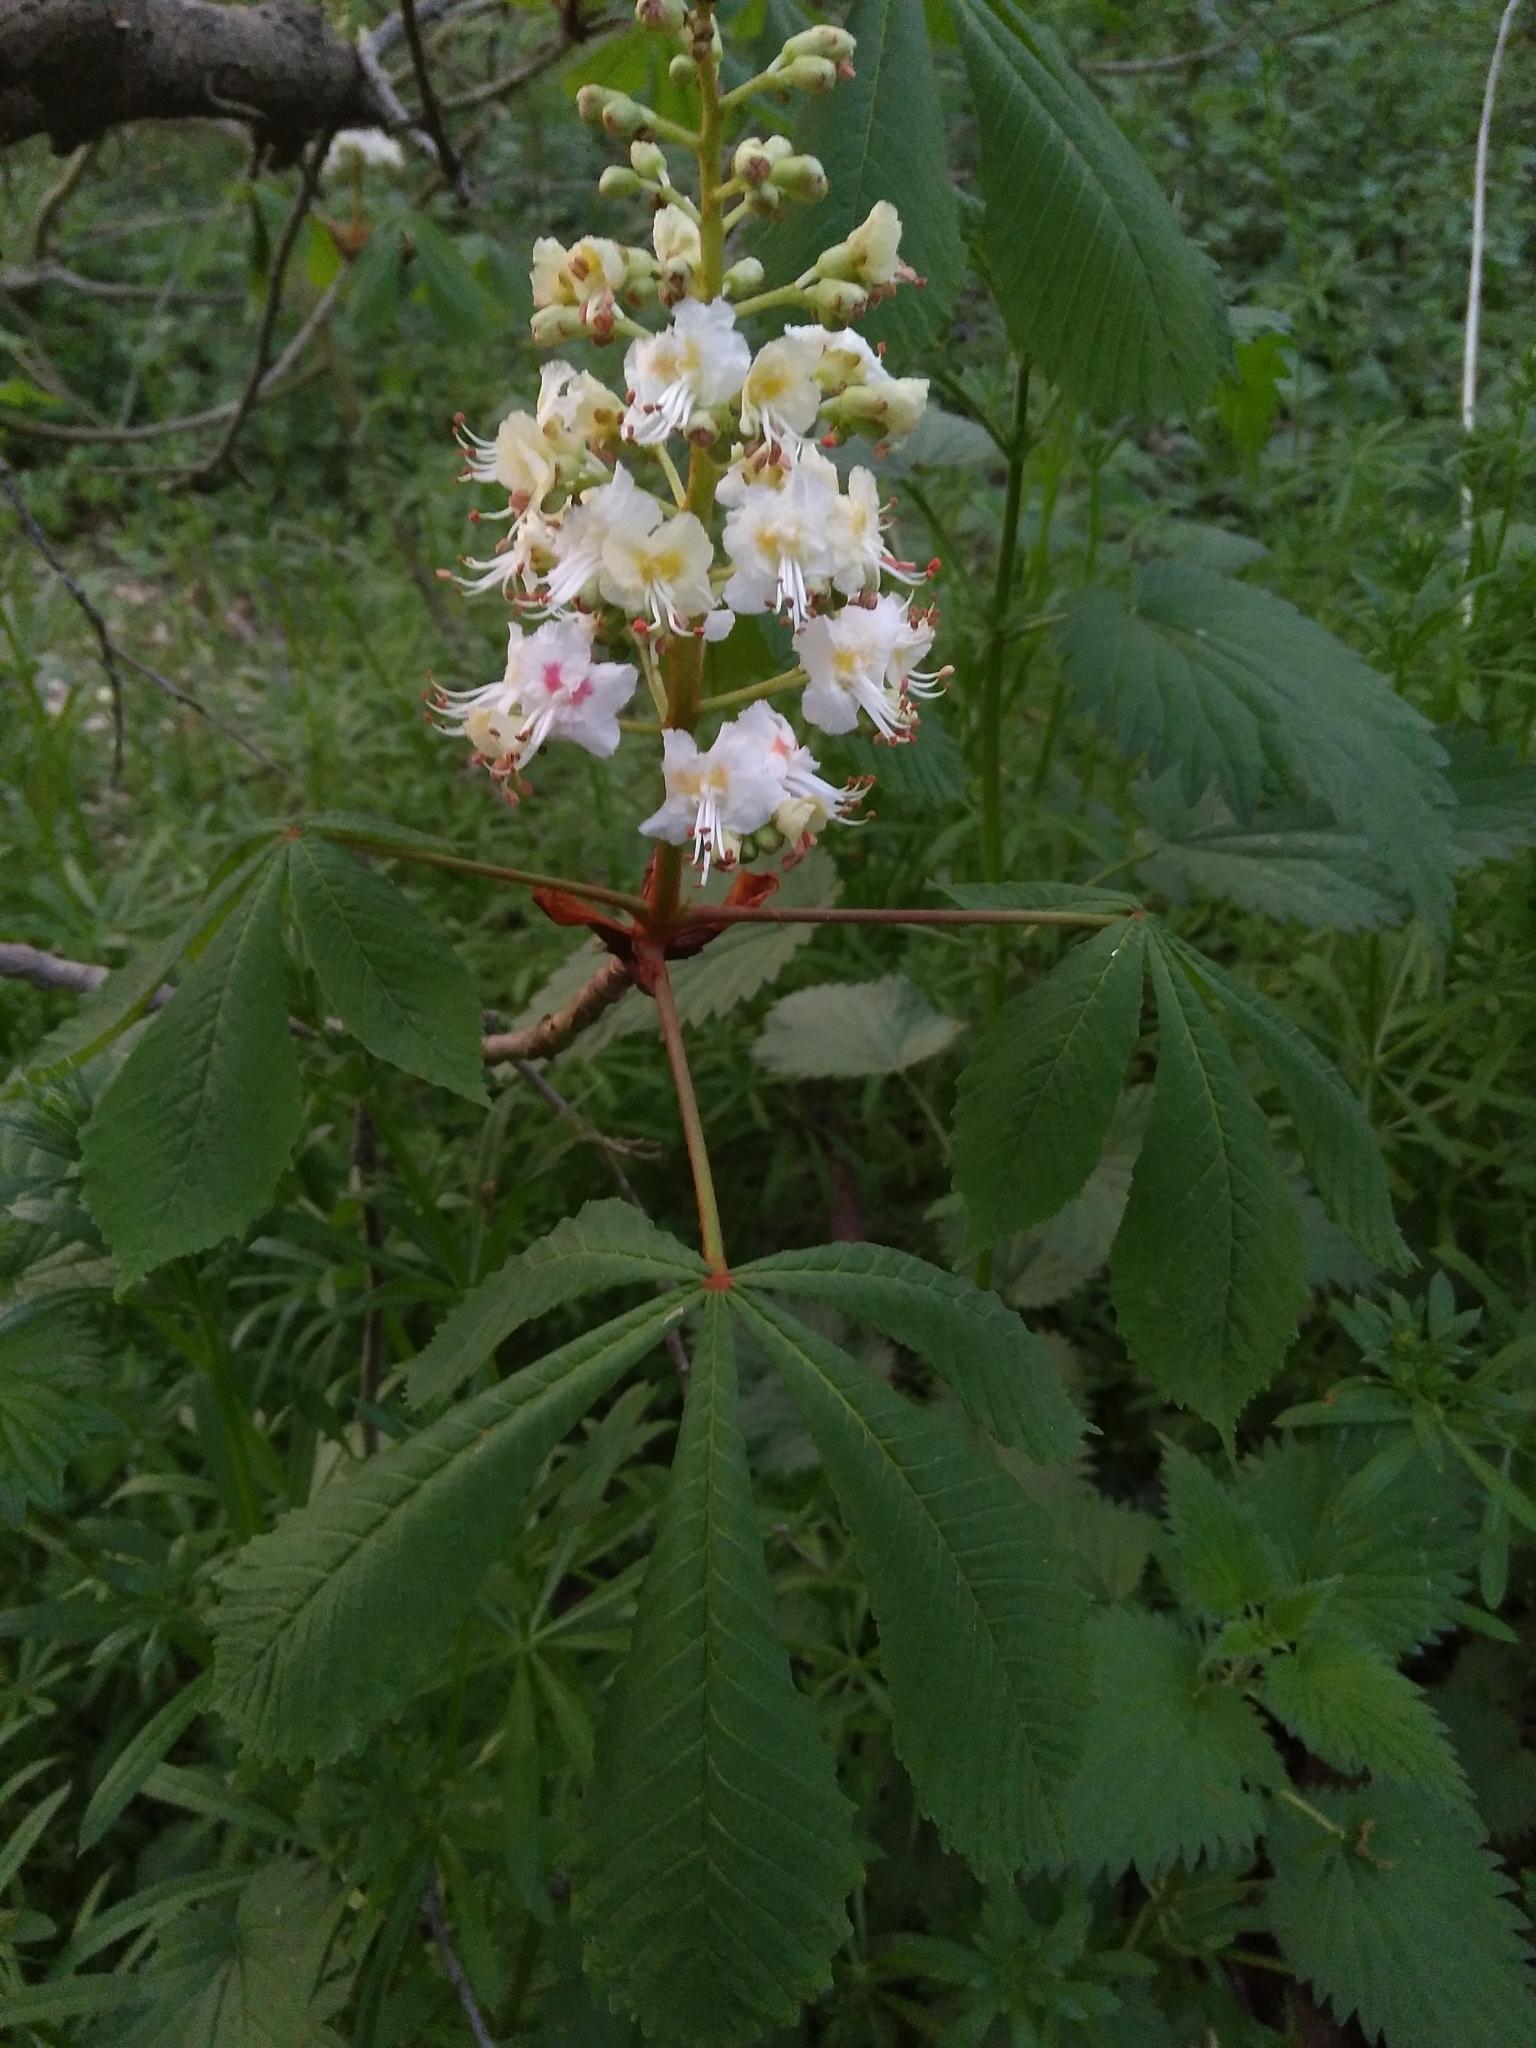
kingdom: Plantae
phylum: Tracheophyta
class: Magnoliopsida
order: Sapindales
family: Sapindaceae
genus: Aesculus
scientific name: Aesculus hippocastanum
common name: Horse-chestnut
